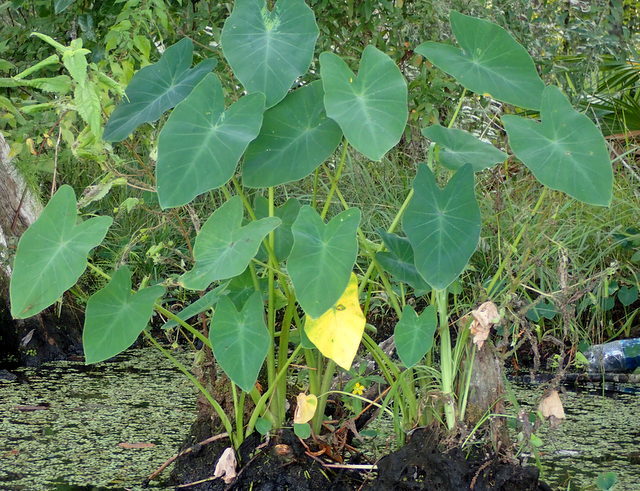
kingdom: Plantae
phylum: Tracheophyta
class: Liliopsida
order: Alismatales
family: Araceae
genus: Colocasia
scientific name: Colocasia esculenta
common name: Taro
